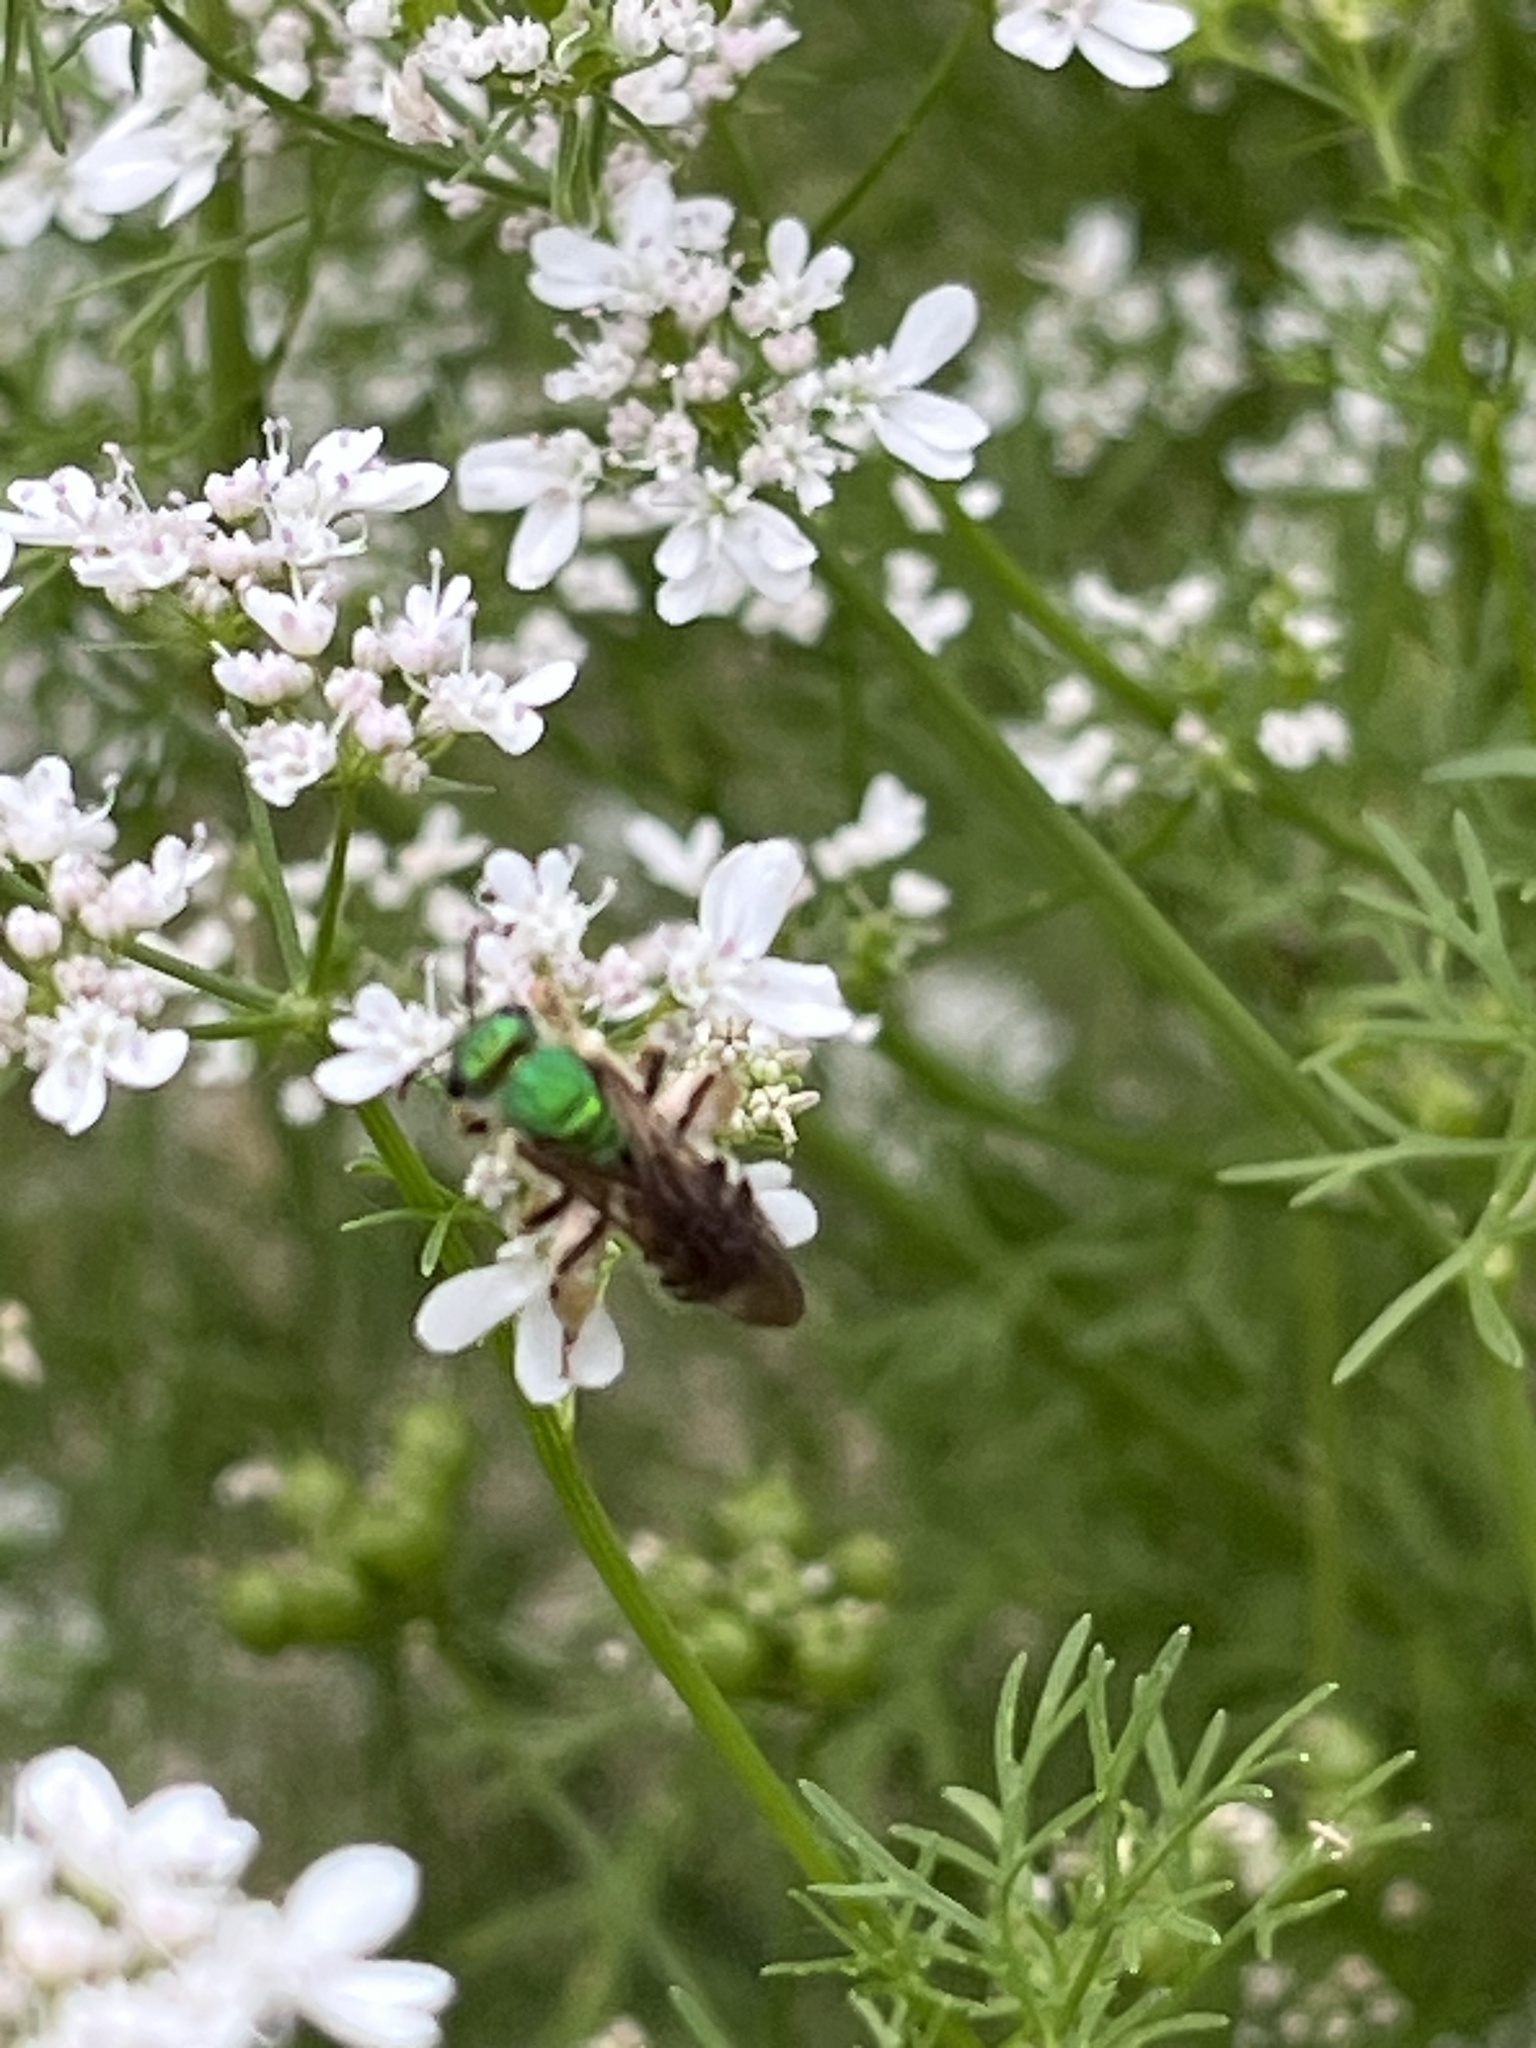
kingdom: Animalia
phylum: Arthropoda
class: Insecta
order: Hymenoptera
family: Halictidae
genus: Agapostemon
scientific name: Agapostemon virescens
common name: Bicolored striped sweat bee
